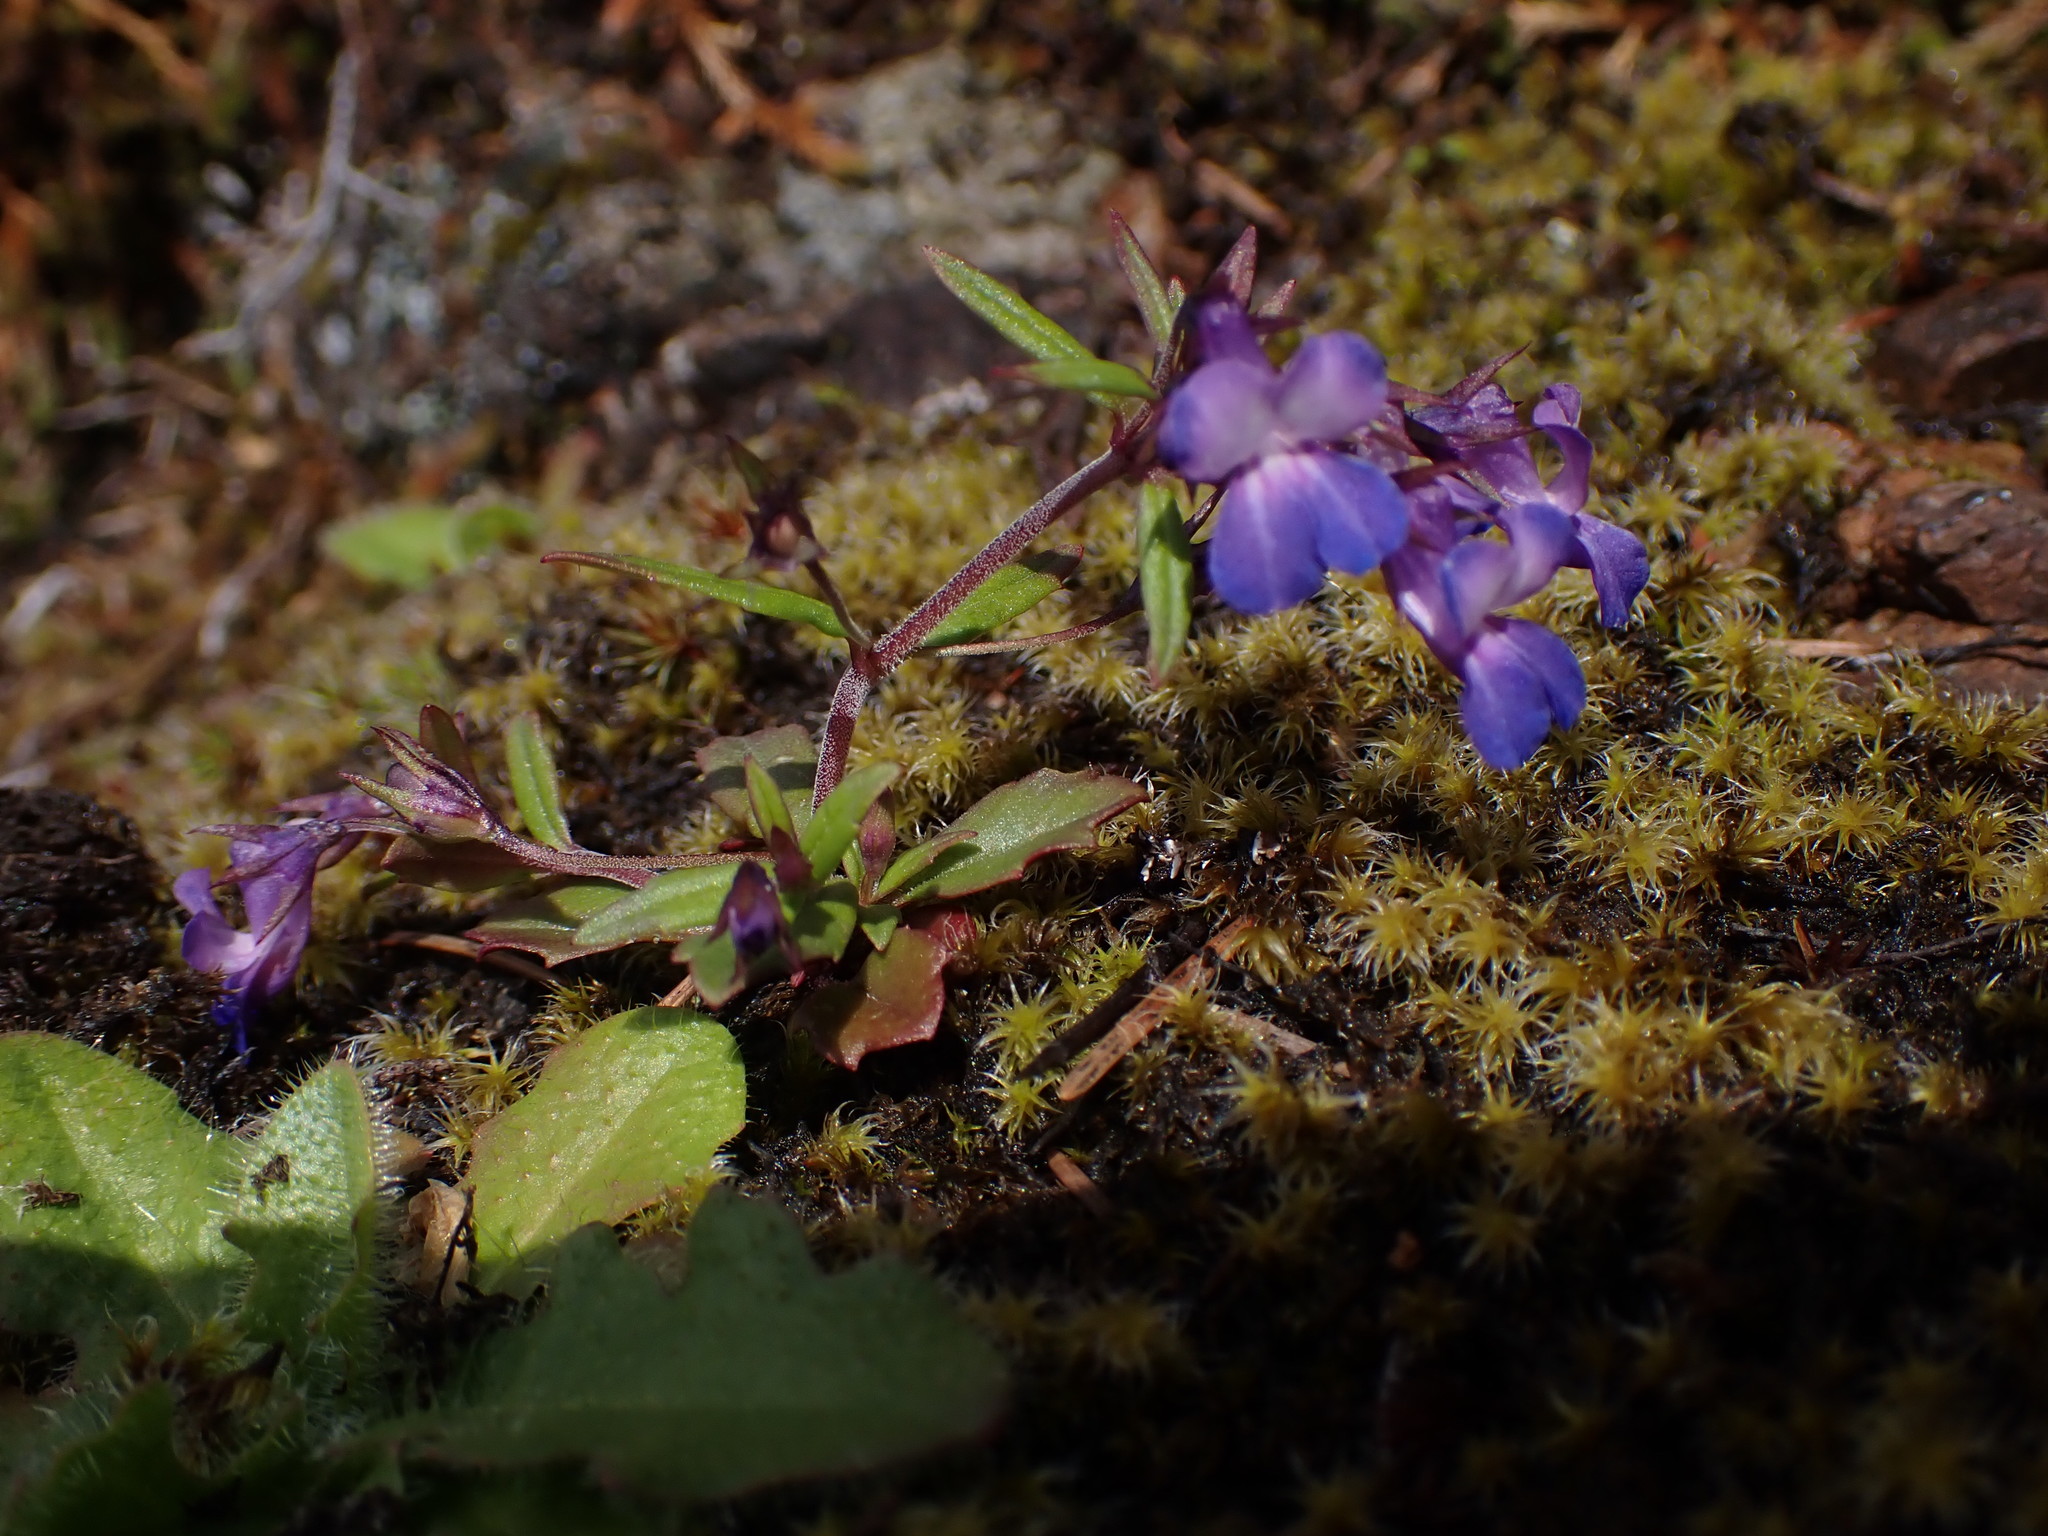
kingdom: Plantae
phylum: Tracheophyta
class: Magnoliopsida
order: Lamiales
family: Plantaginaceae
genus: Collinsia
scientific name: Collinsia grandiflora
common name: Large-flower blue-eyed-mary
